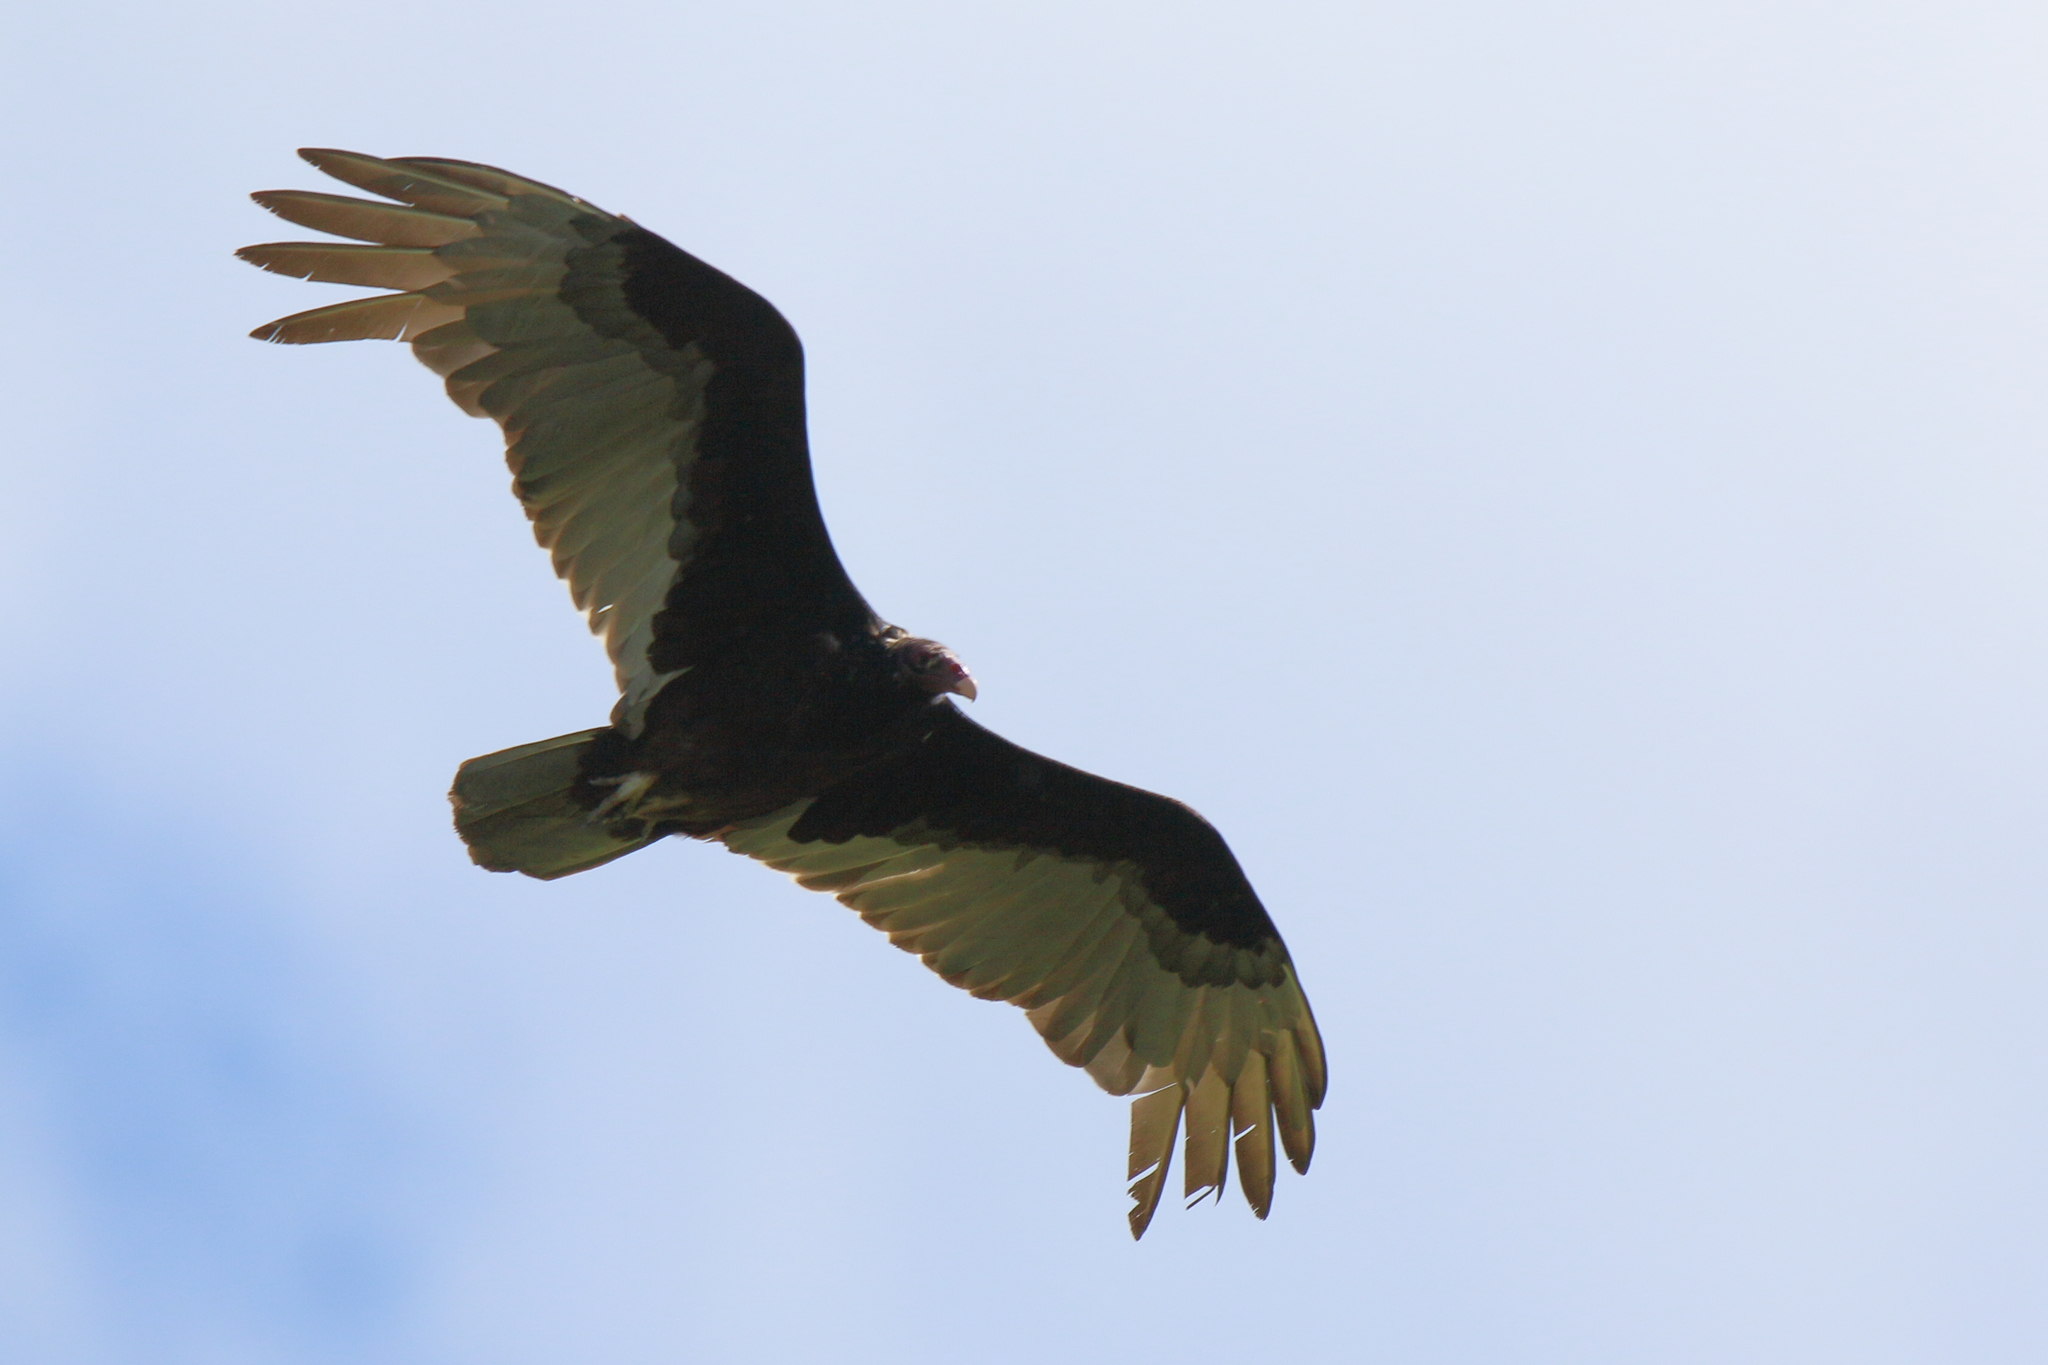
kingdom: Animalia
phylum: Chordata
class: Aves
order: Accipitriformes
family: Cathartidae
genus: Cathartes
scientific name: Cathartes aura
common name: Turkey vulture
